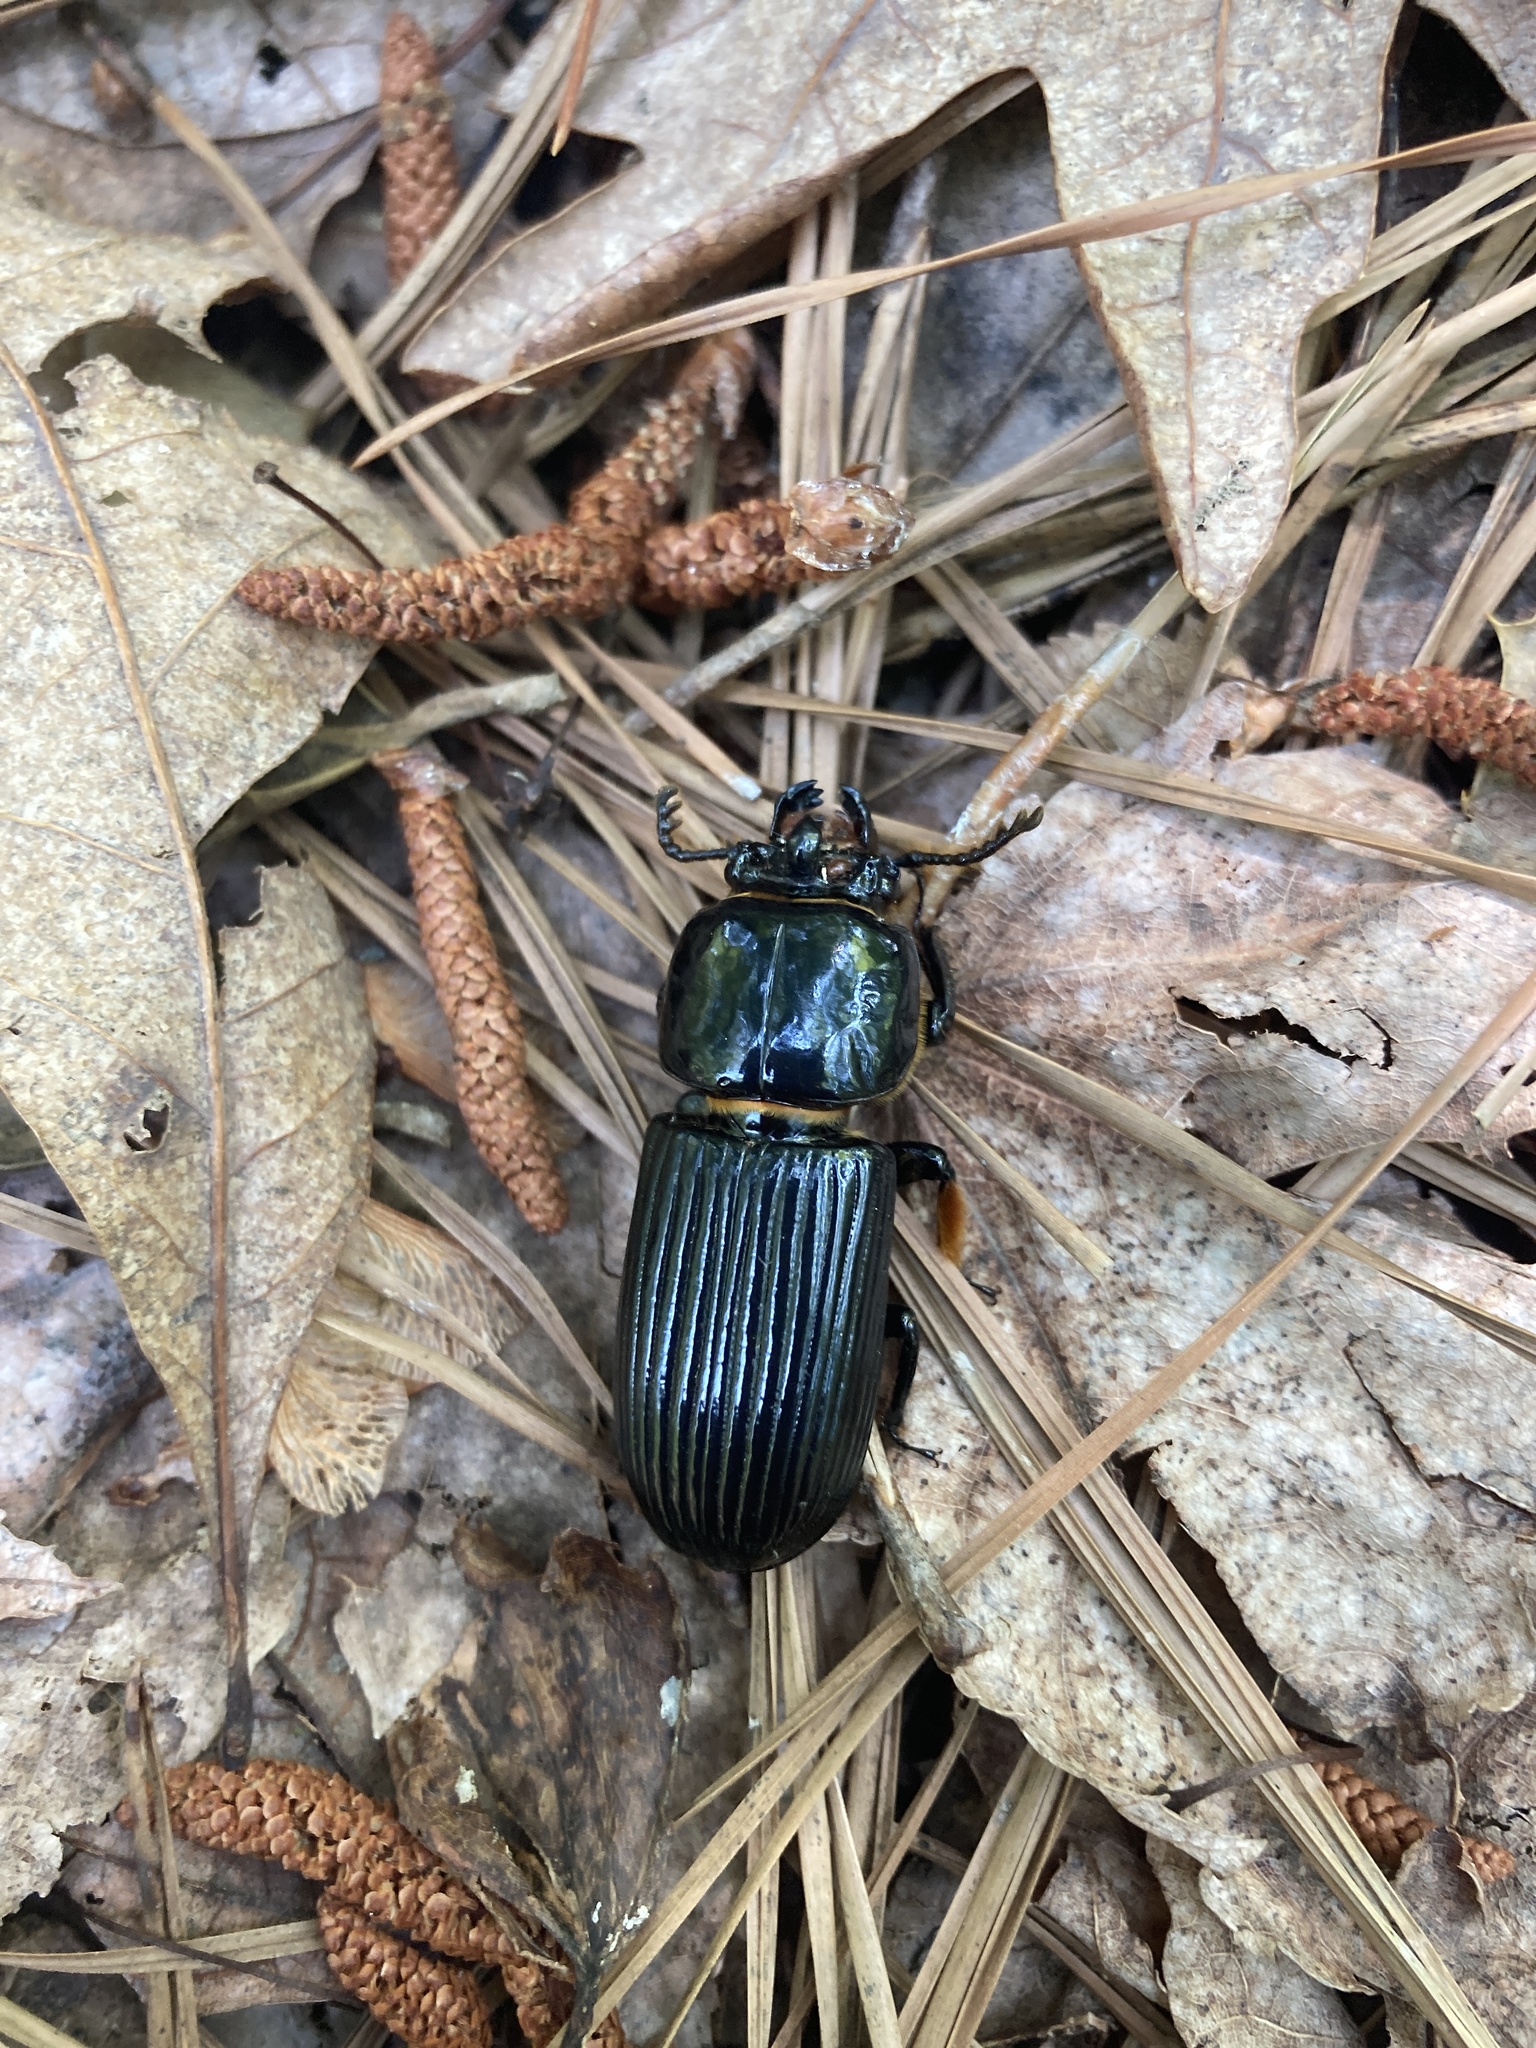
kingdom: Animalia
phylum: Arthropoda
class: Insecta
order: Coleoptera
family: Passalidae
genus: Odontotaenius
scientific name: Odontotaenius disjunctus
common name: Patent leather beetle
